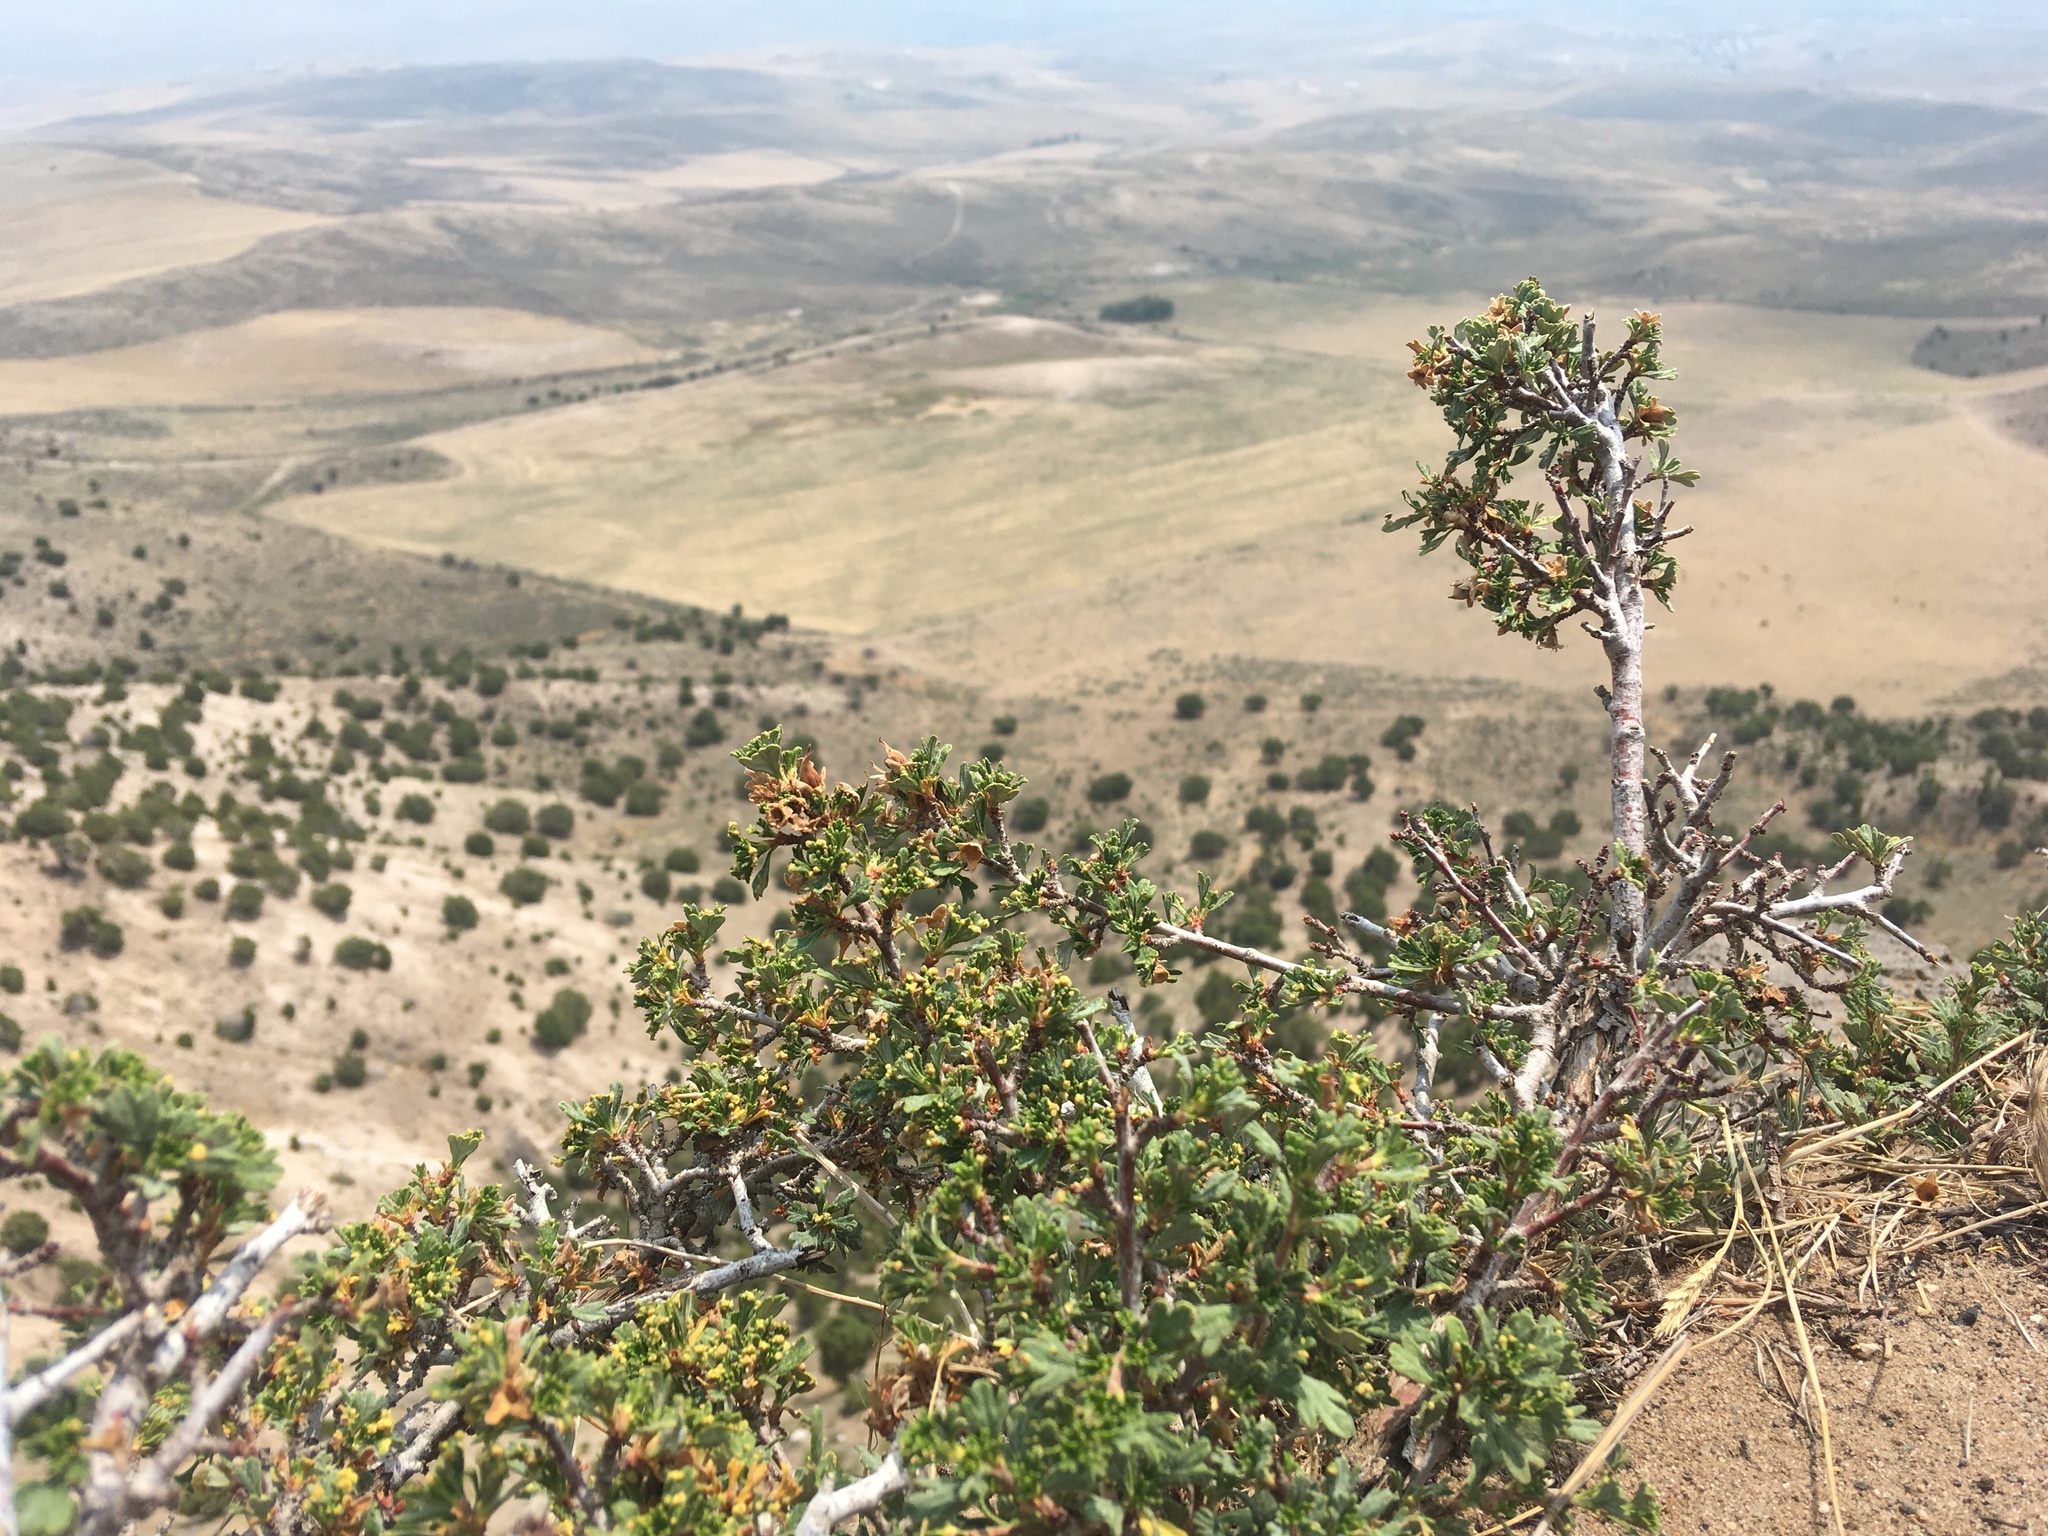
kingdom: Plantae
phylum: Tracheophyta
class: Magnoliopsida
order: Rosales
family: Rosaceae
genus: Purshia
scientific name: Purshia tridentata
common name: Antelope bitterbrush
